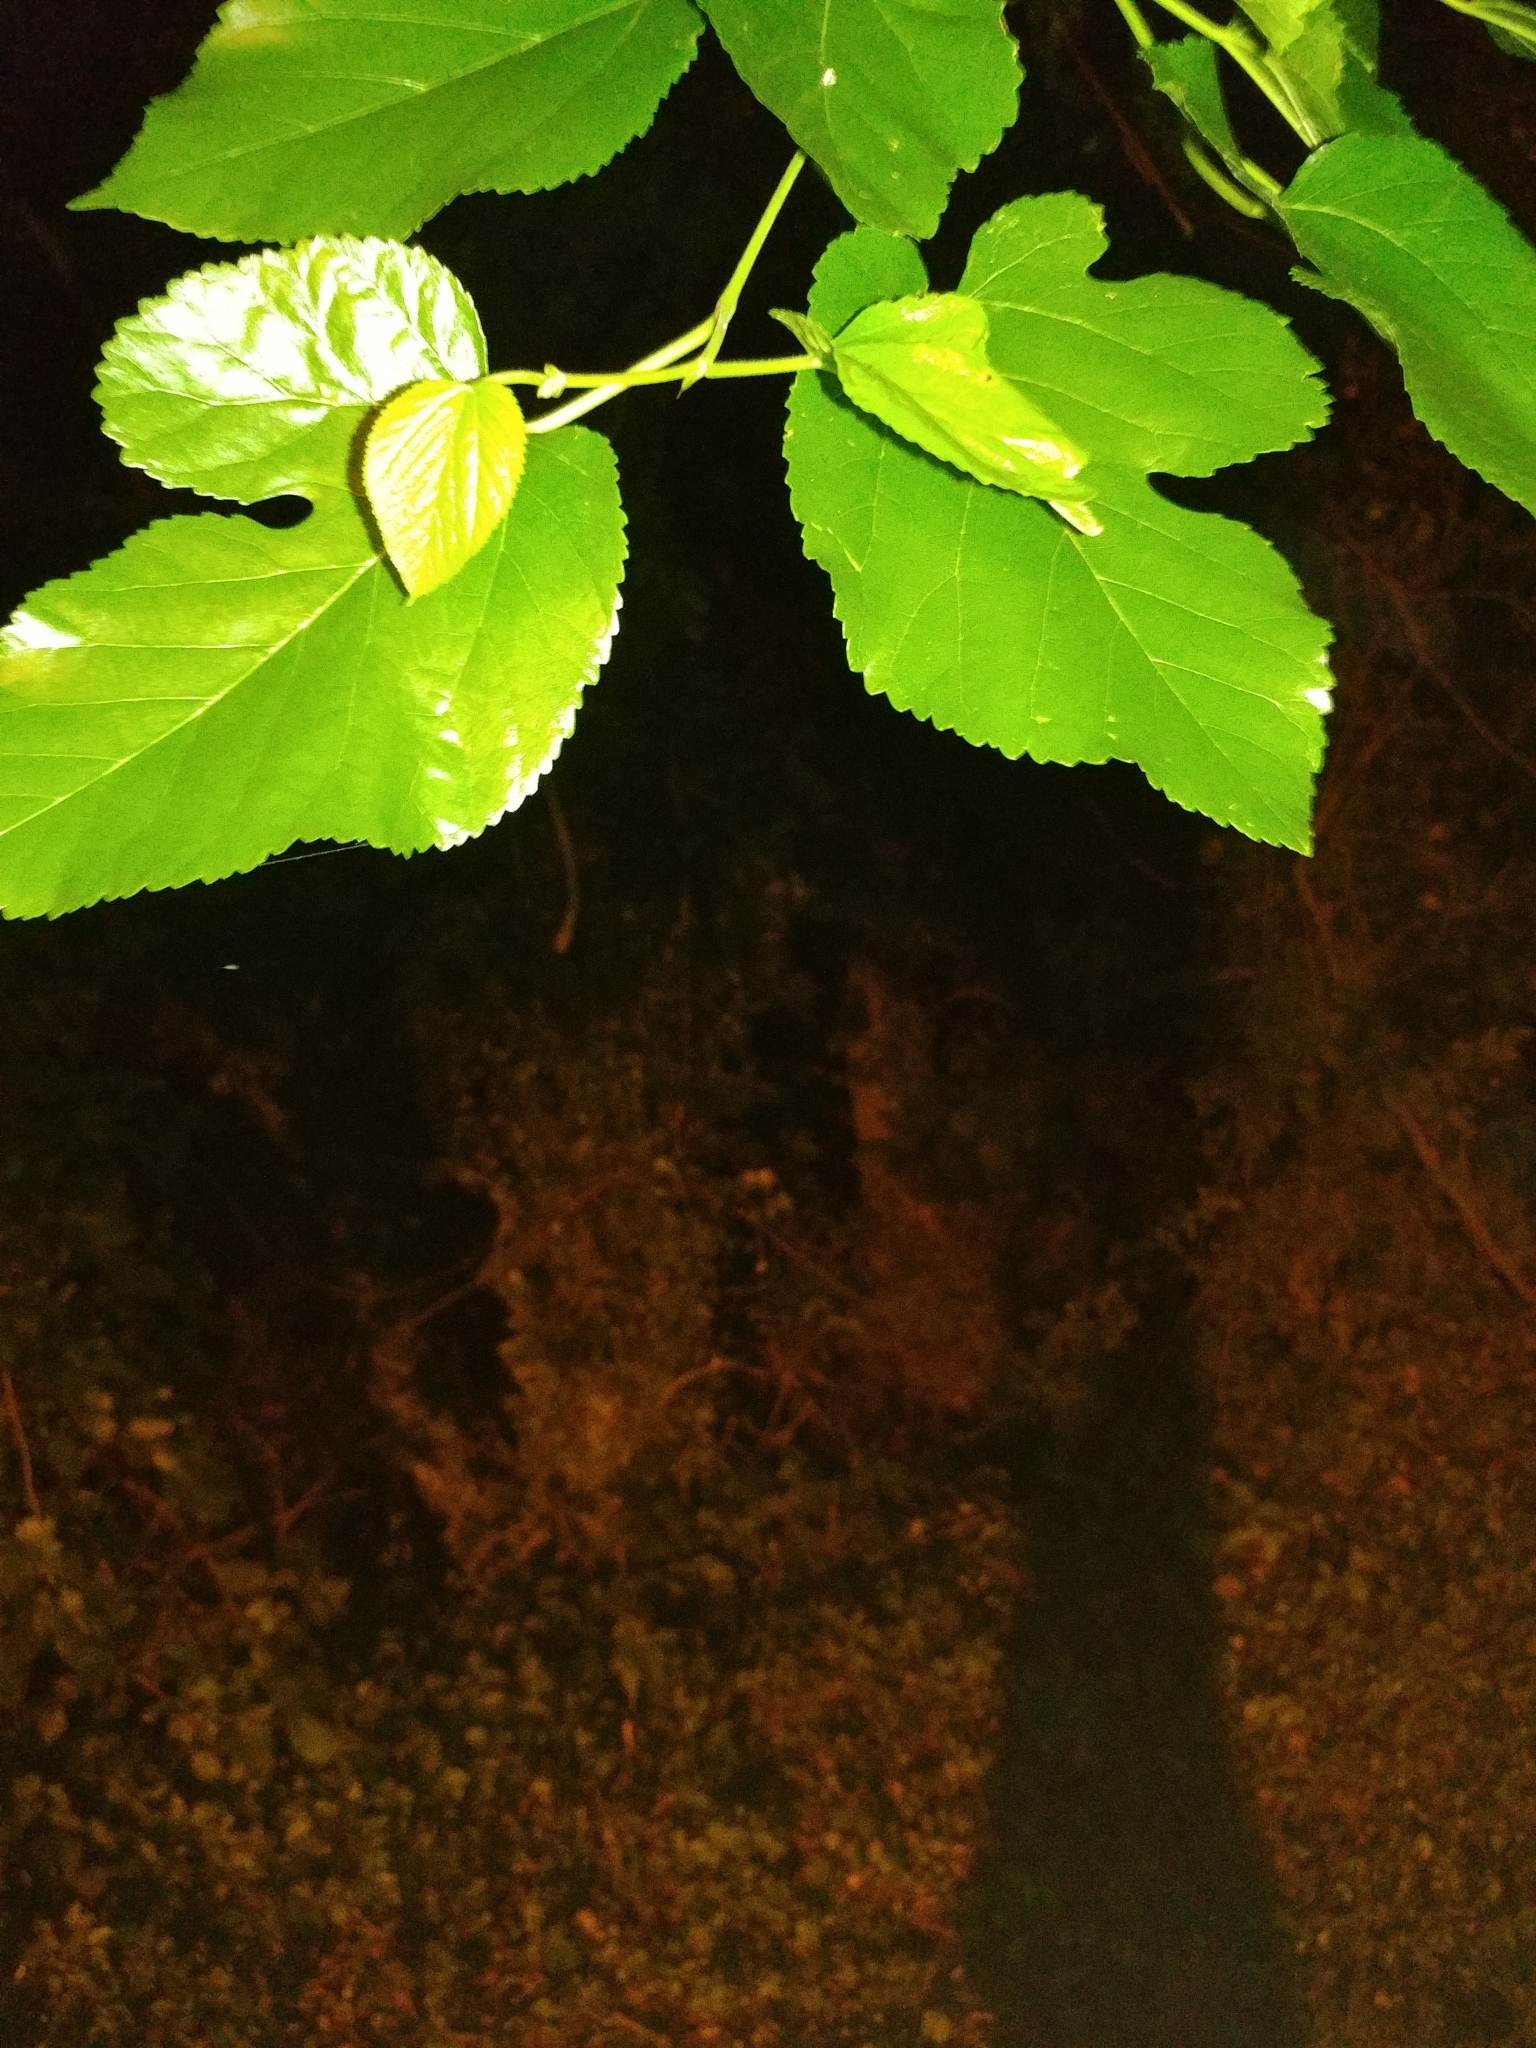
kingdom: Plantae
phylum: Tracheophyta
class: Magnoliopsida
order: Rosales
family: Moraceae
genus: Morus
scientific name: Morus alba
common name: White mulberry
